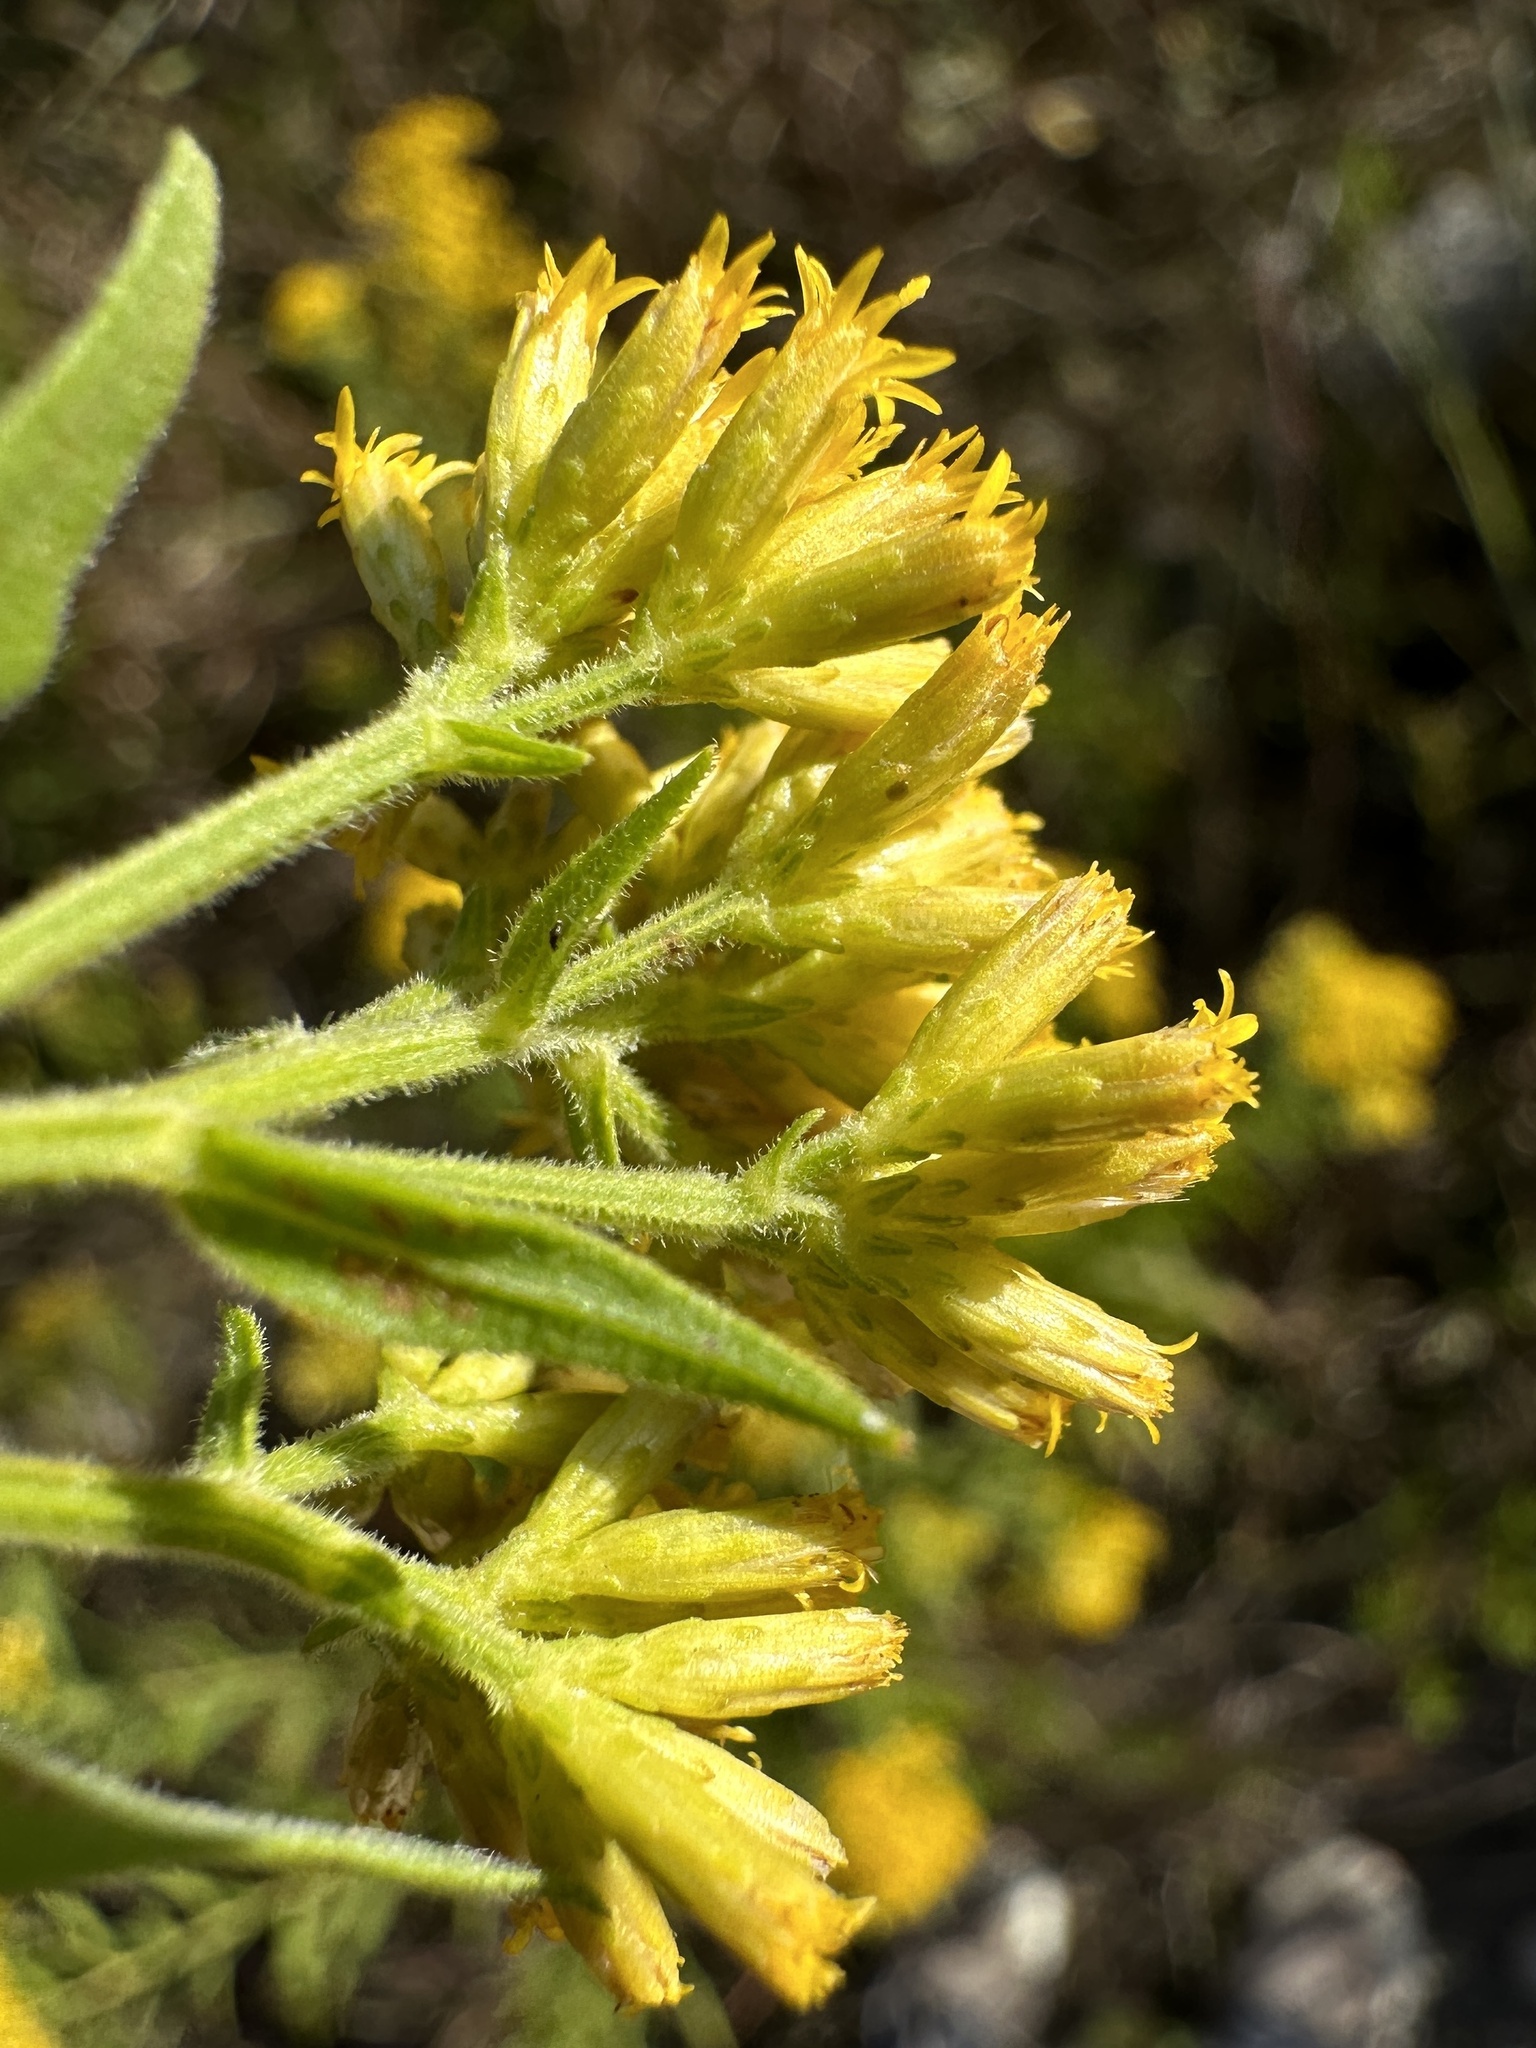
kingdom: Plantae
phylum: Tracheophyta
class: Magnoliopsida
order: Asterales
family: Asteraceae
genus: Euthamia
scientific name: Euthamia graminifolia
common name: Common goldentop
